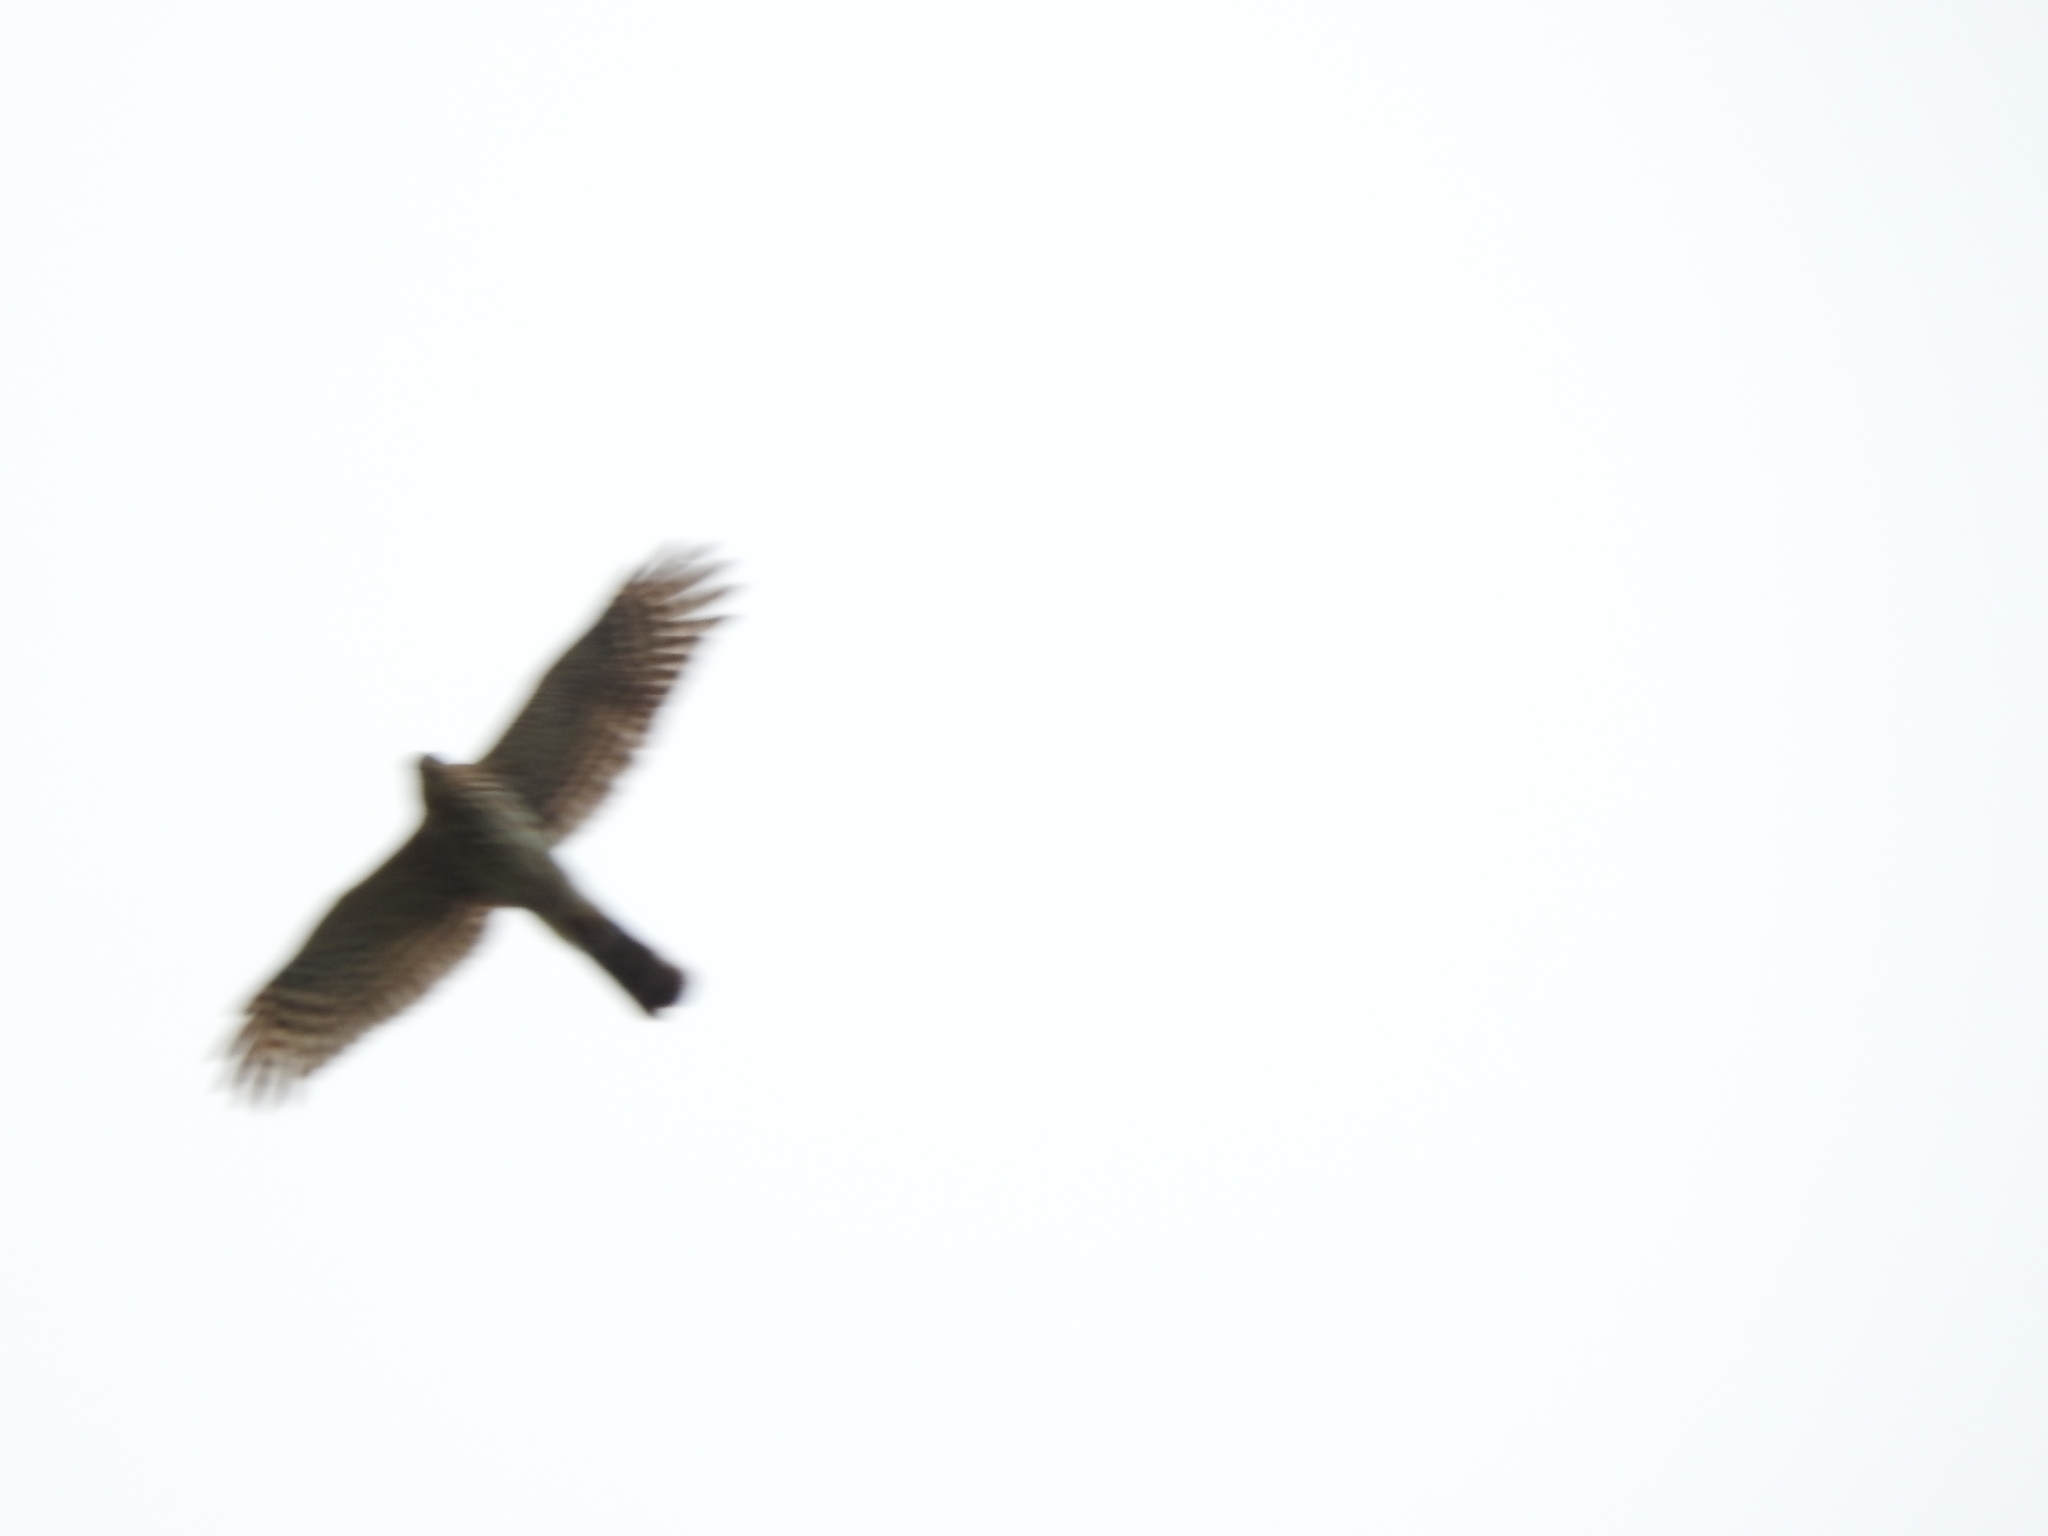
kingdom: Animalia
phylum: Chordata
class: Aves
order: Accipitriformes
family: Accipitridae
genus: Accipiter
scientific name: Accipiter cooperii
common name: Cooper's hawk
